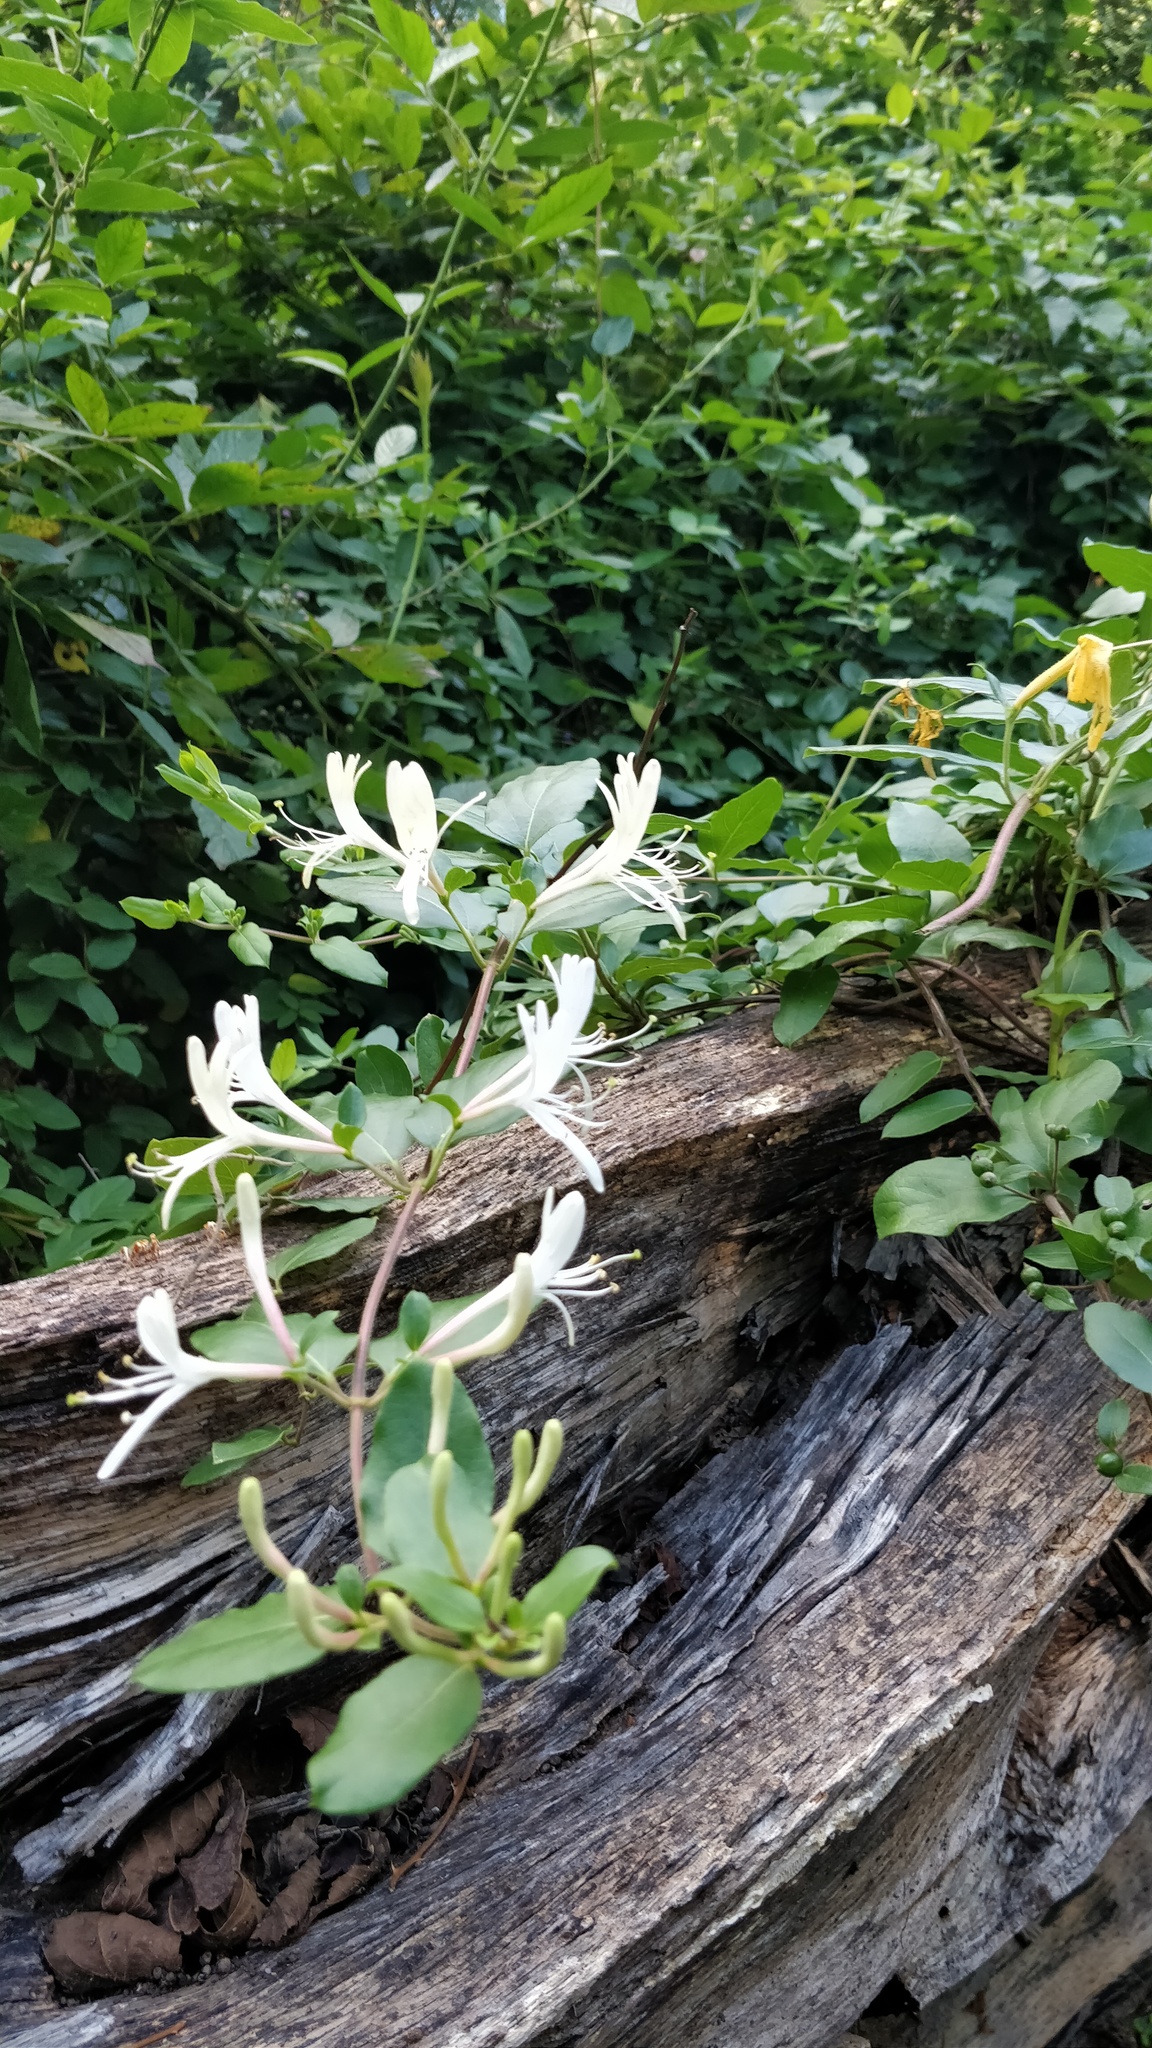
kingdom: Plantae
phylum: Tracheophyta
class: Magnoliopsida
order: Dipsacales
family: Caprifoliaceae
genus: Lonicera
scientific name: Lonicera japonica
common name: Japanese honeysuckle
